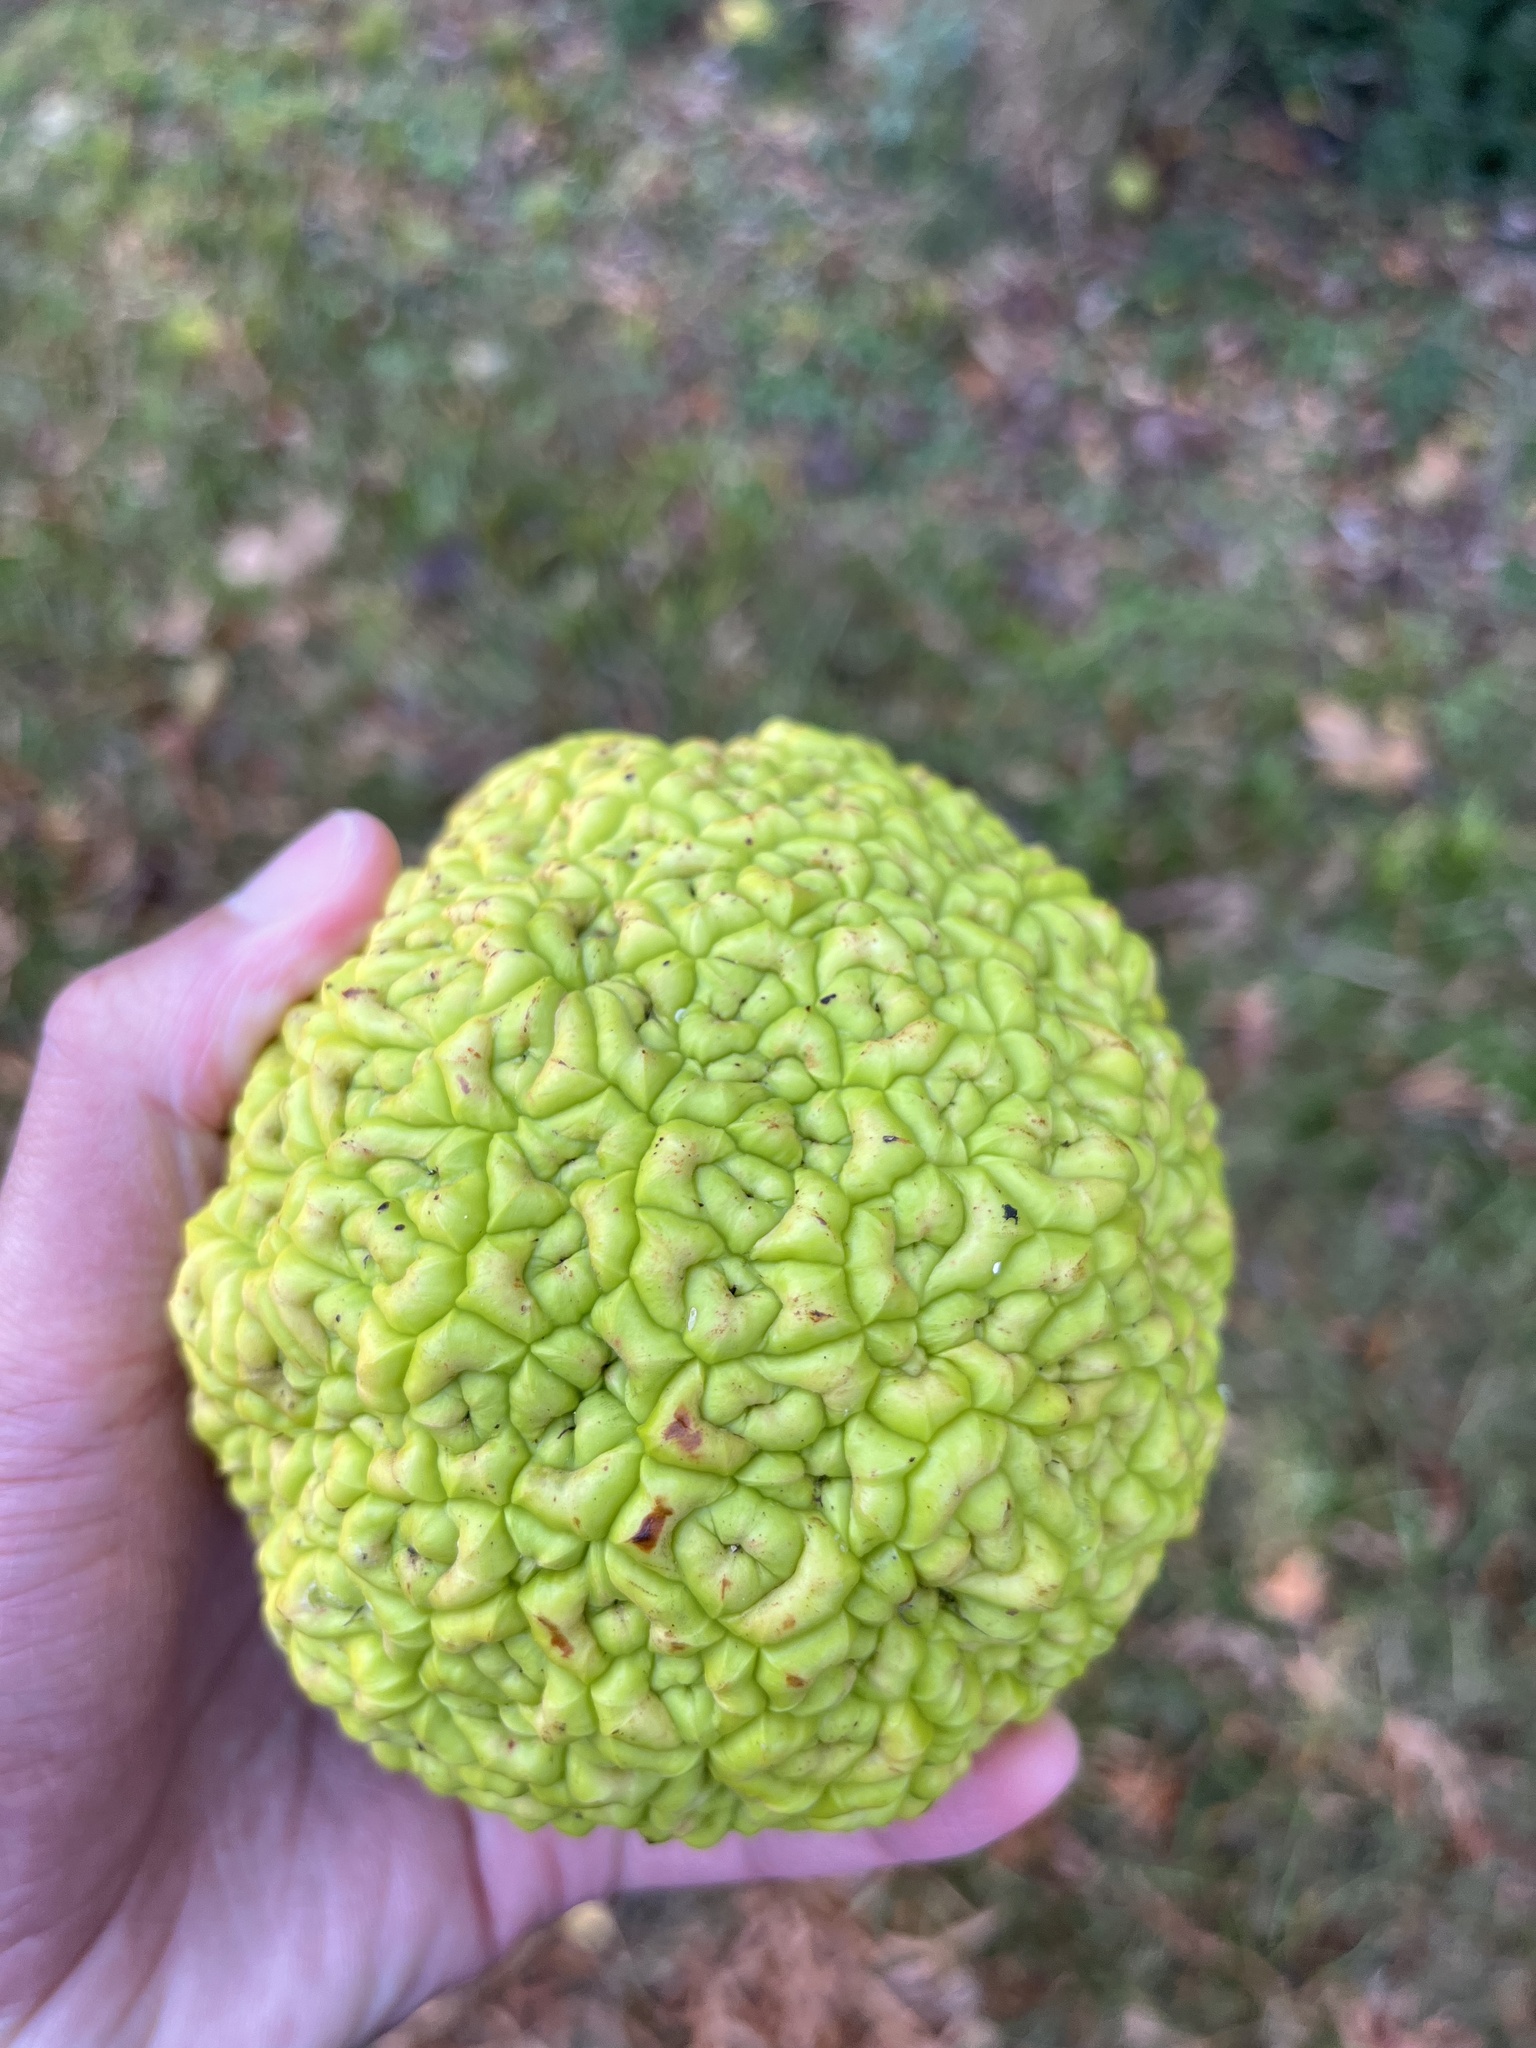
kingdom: Plantae
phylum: Tracheophyta
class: Magnoliopsida
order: Rosales
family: Moraceae
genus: Maclura
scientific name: Maclura pomifera
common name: Osage-orange
